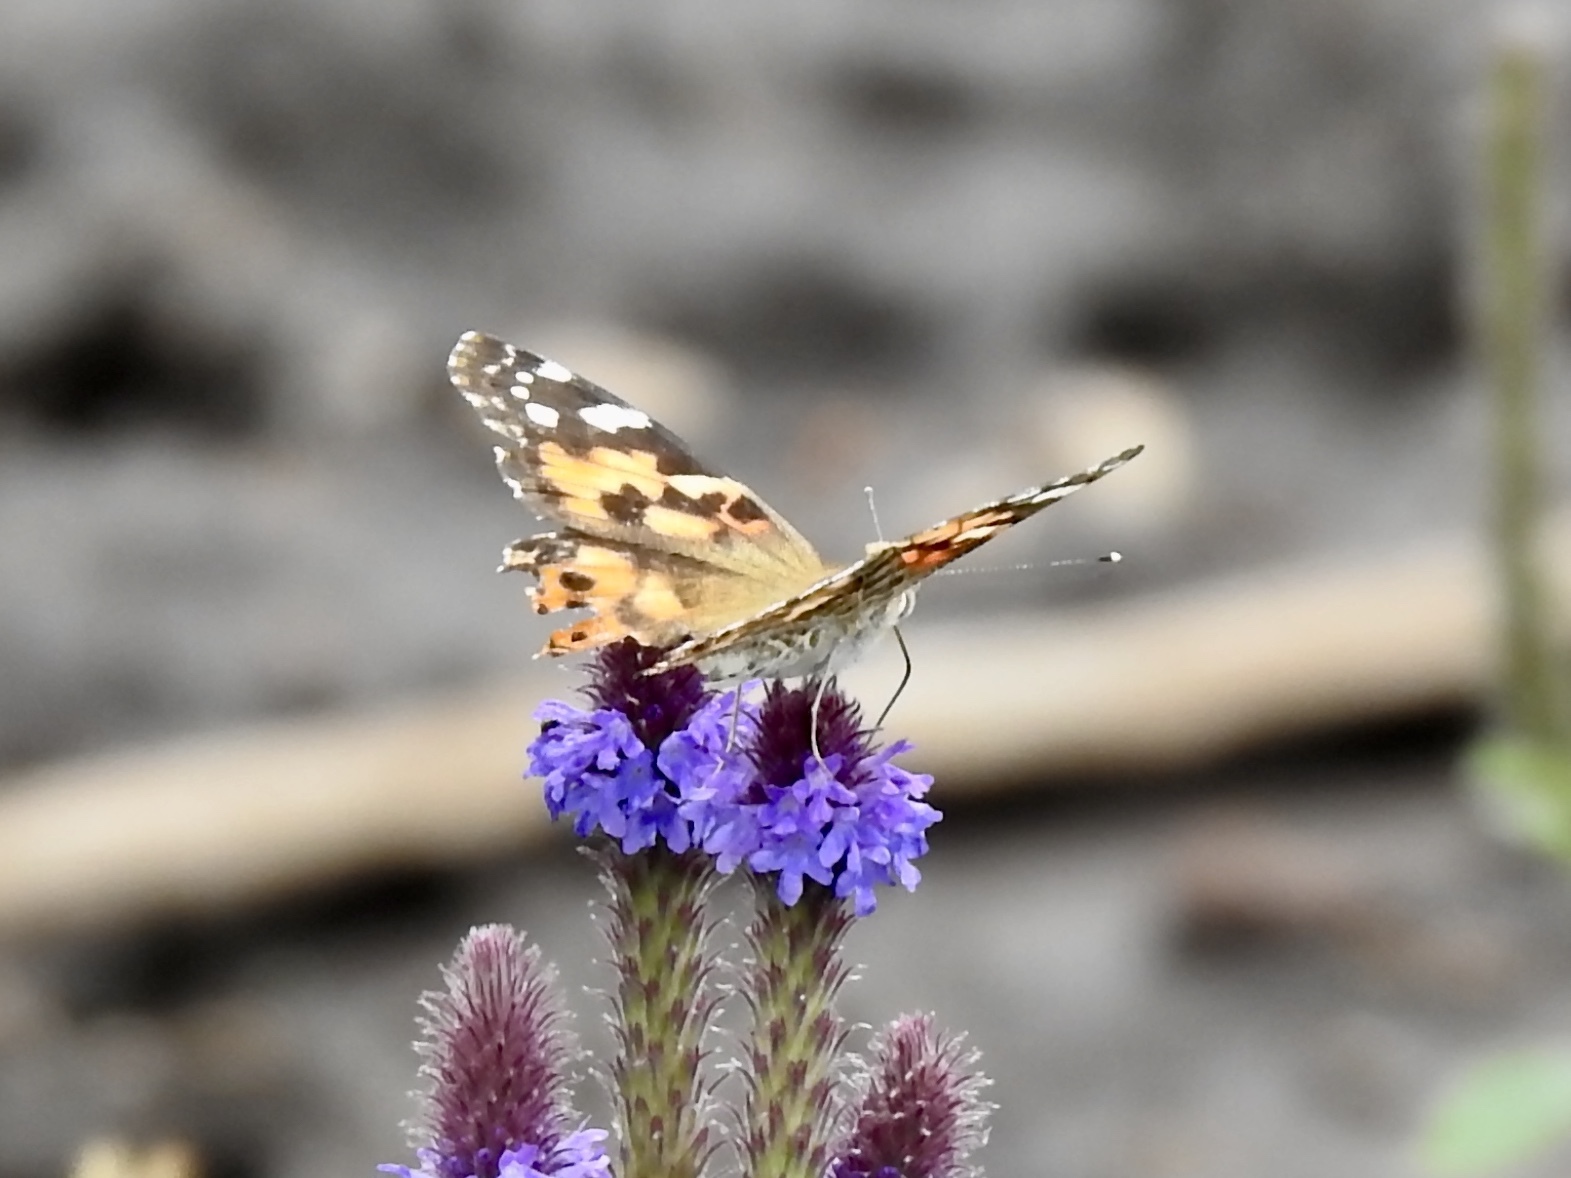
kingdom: Animalia
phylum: Arthropoda
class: Insecta
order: Lepidoptera
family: Nymphalidae
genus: Vanessa
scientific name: Vanessa cardui
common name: Painted lady
